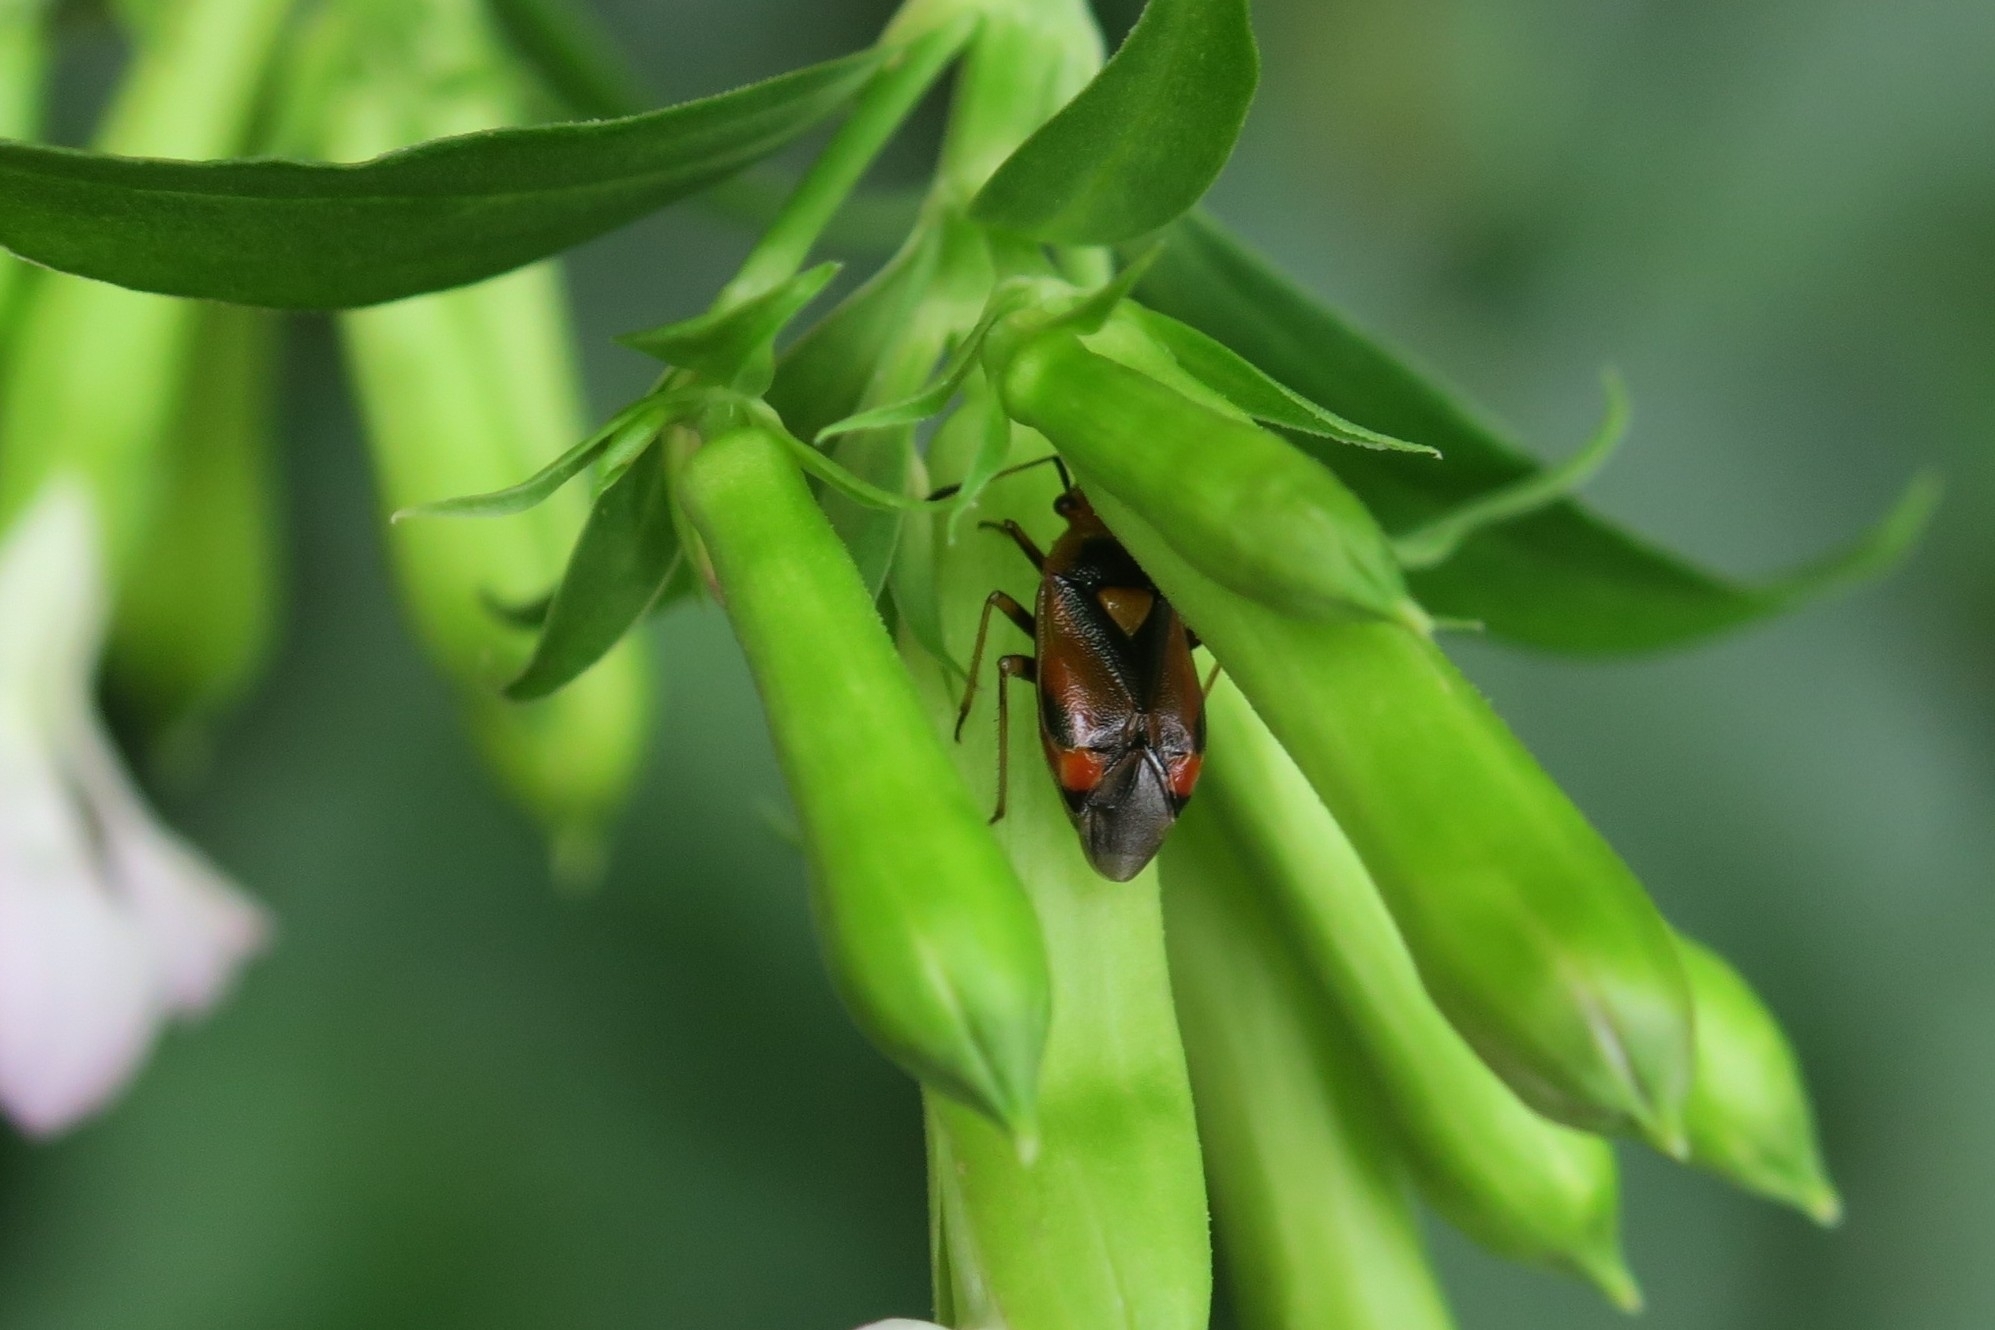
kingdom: Animalia
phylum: Arthropoda
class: Insecta
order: Hemiptera
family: Miridae
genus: Deraeocoris
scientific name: Deraeocoris ruber
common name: Plant bug
